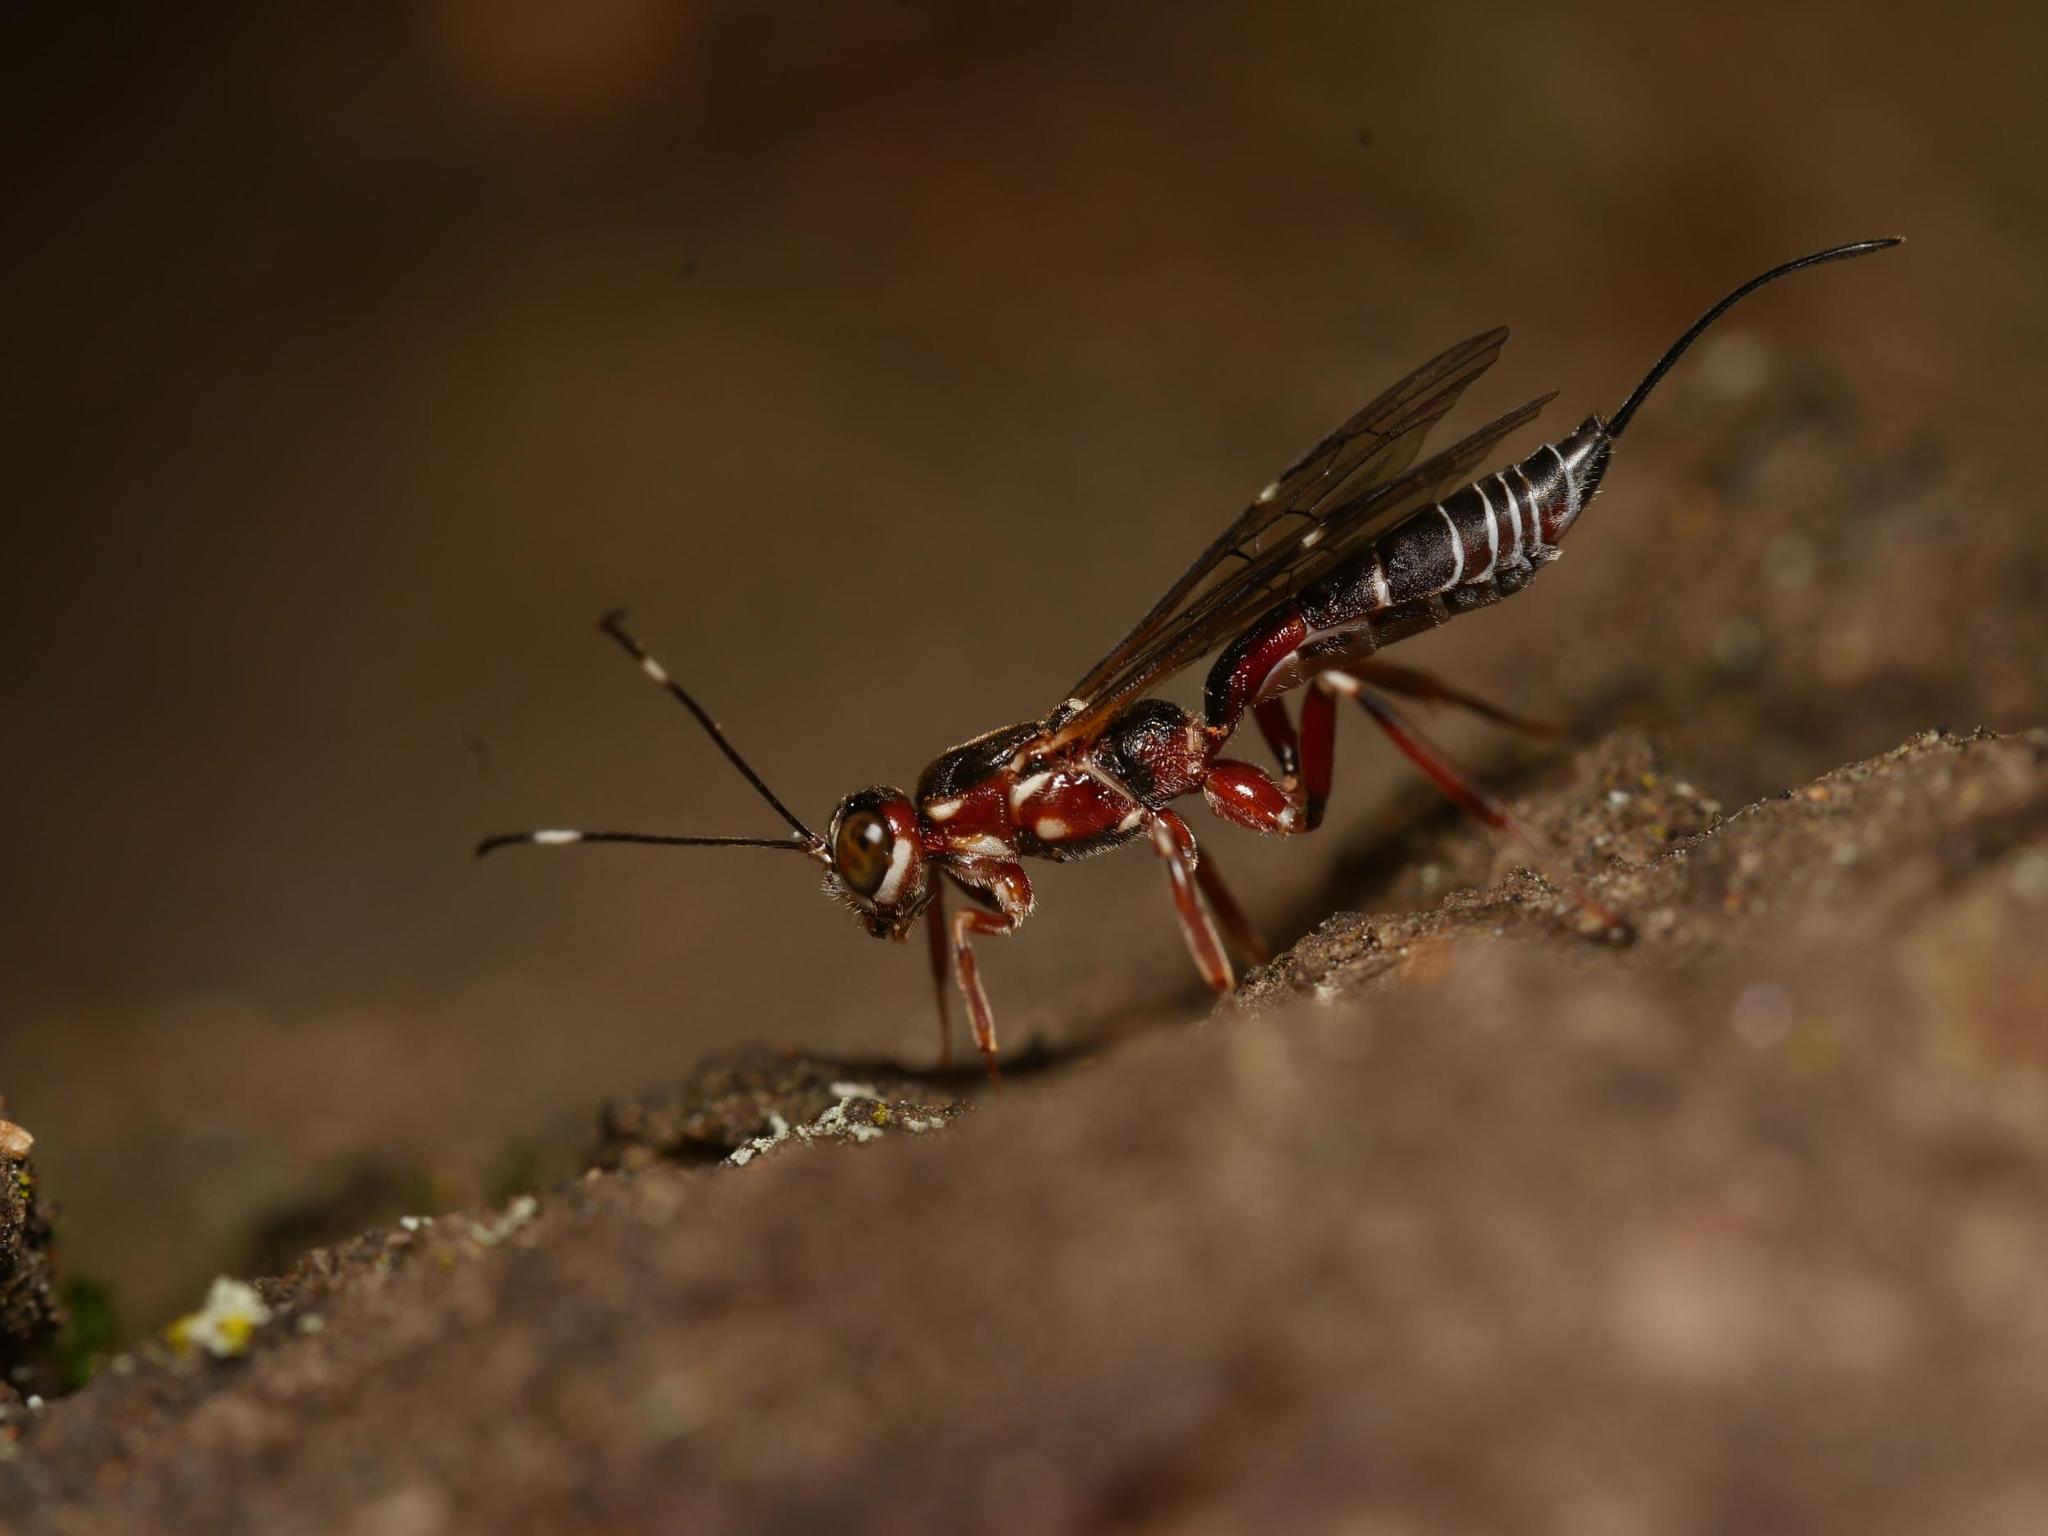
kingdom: Animalia
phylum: Arthropoda
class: Insecta
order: Hymenoptera
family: Ichneumonidae
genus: Xorides
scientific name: Xorides praecatorius
